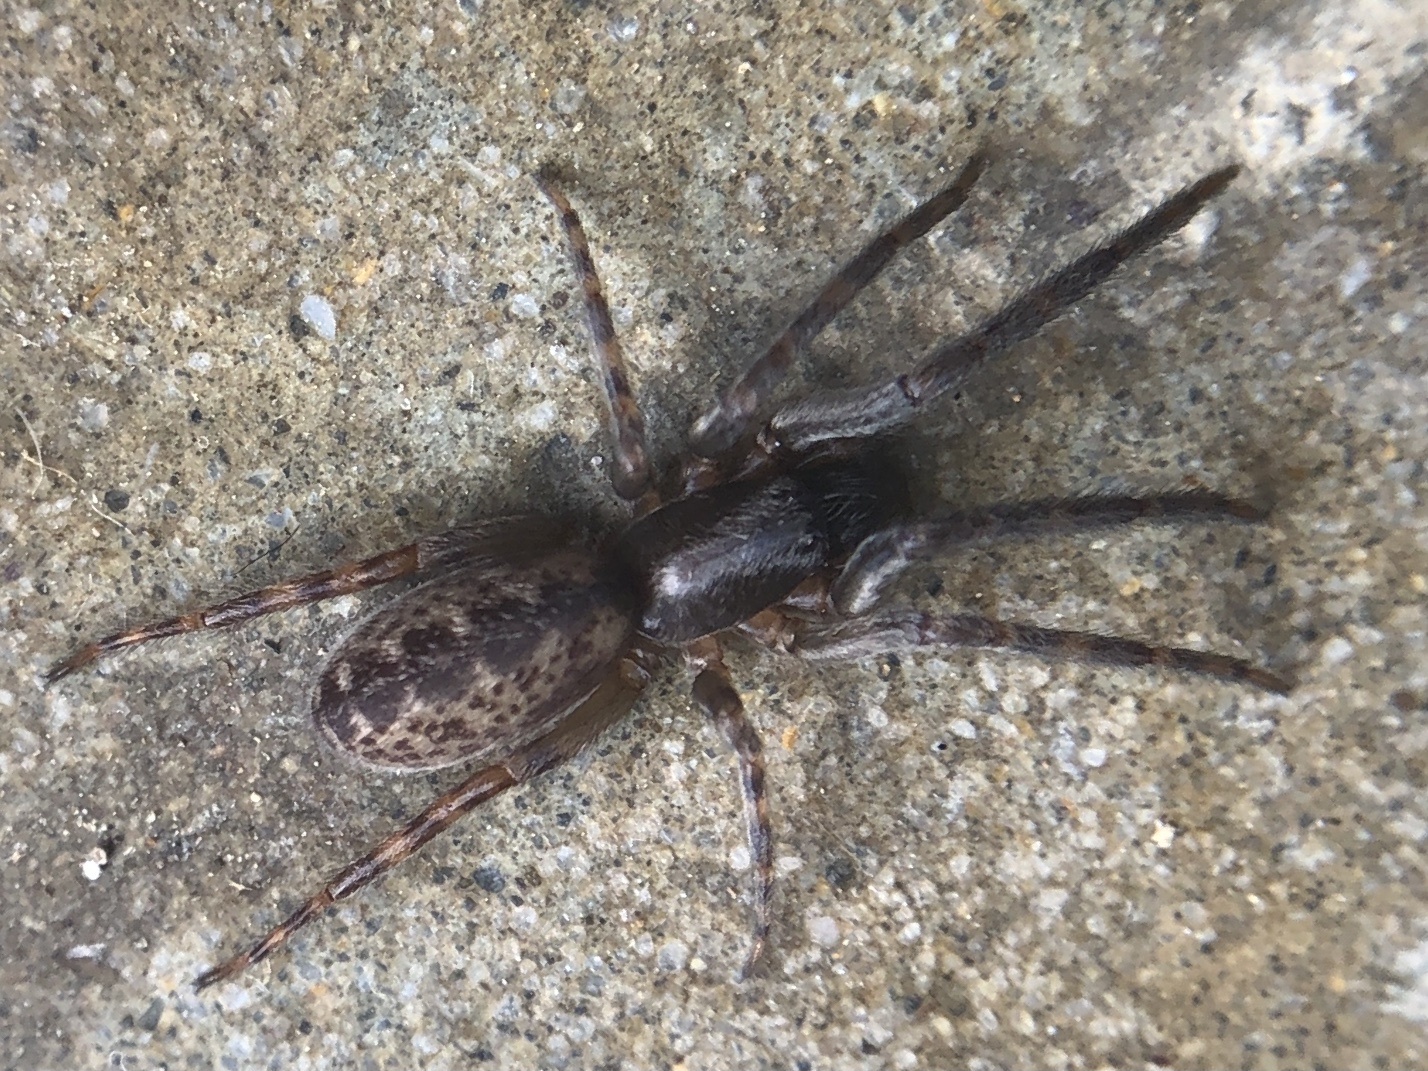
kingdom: Animalia
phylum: Arthropoda
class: Arachnida
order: Araneae
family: Segestriidae
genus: Segestria
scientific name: Segestria senoculata
